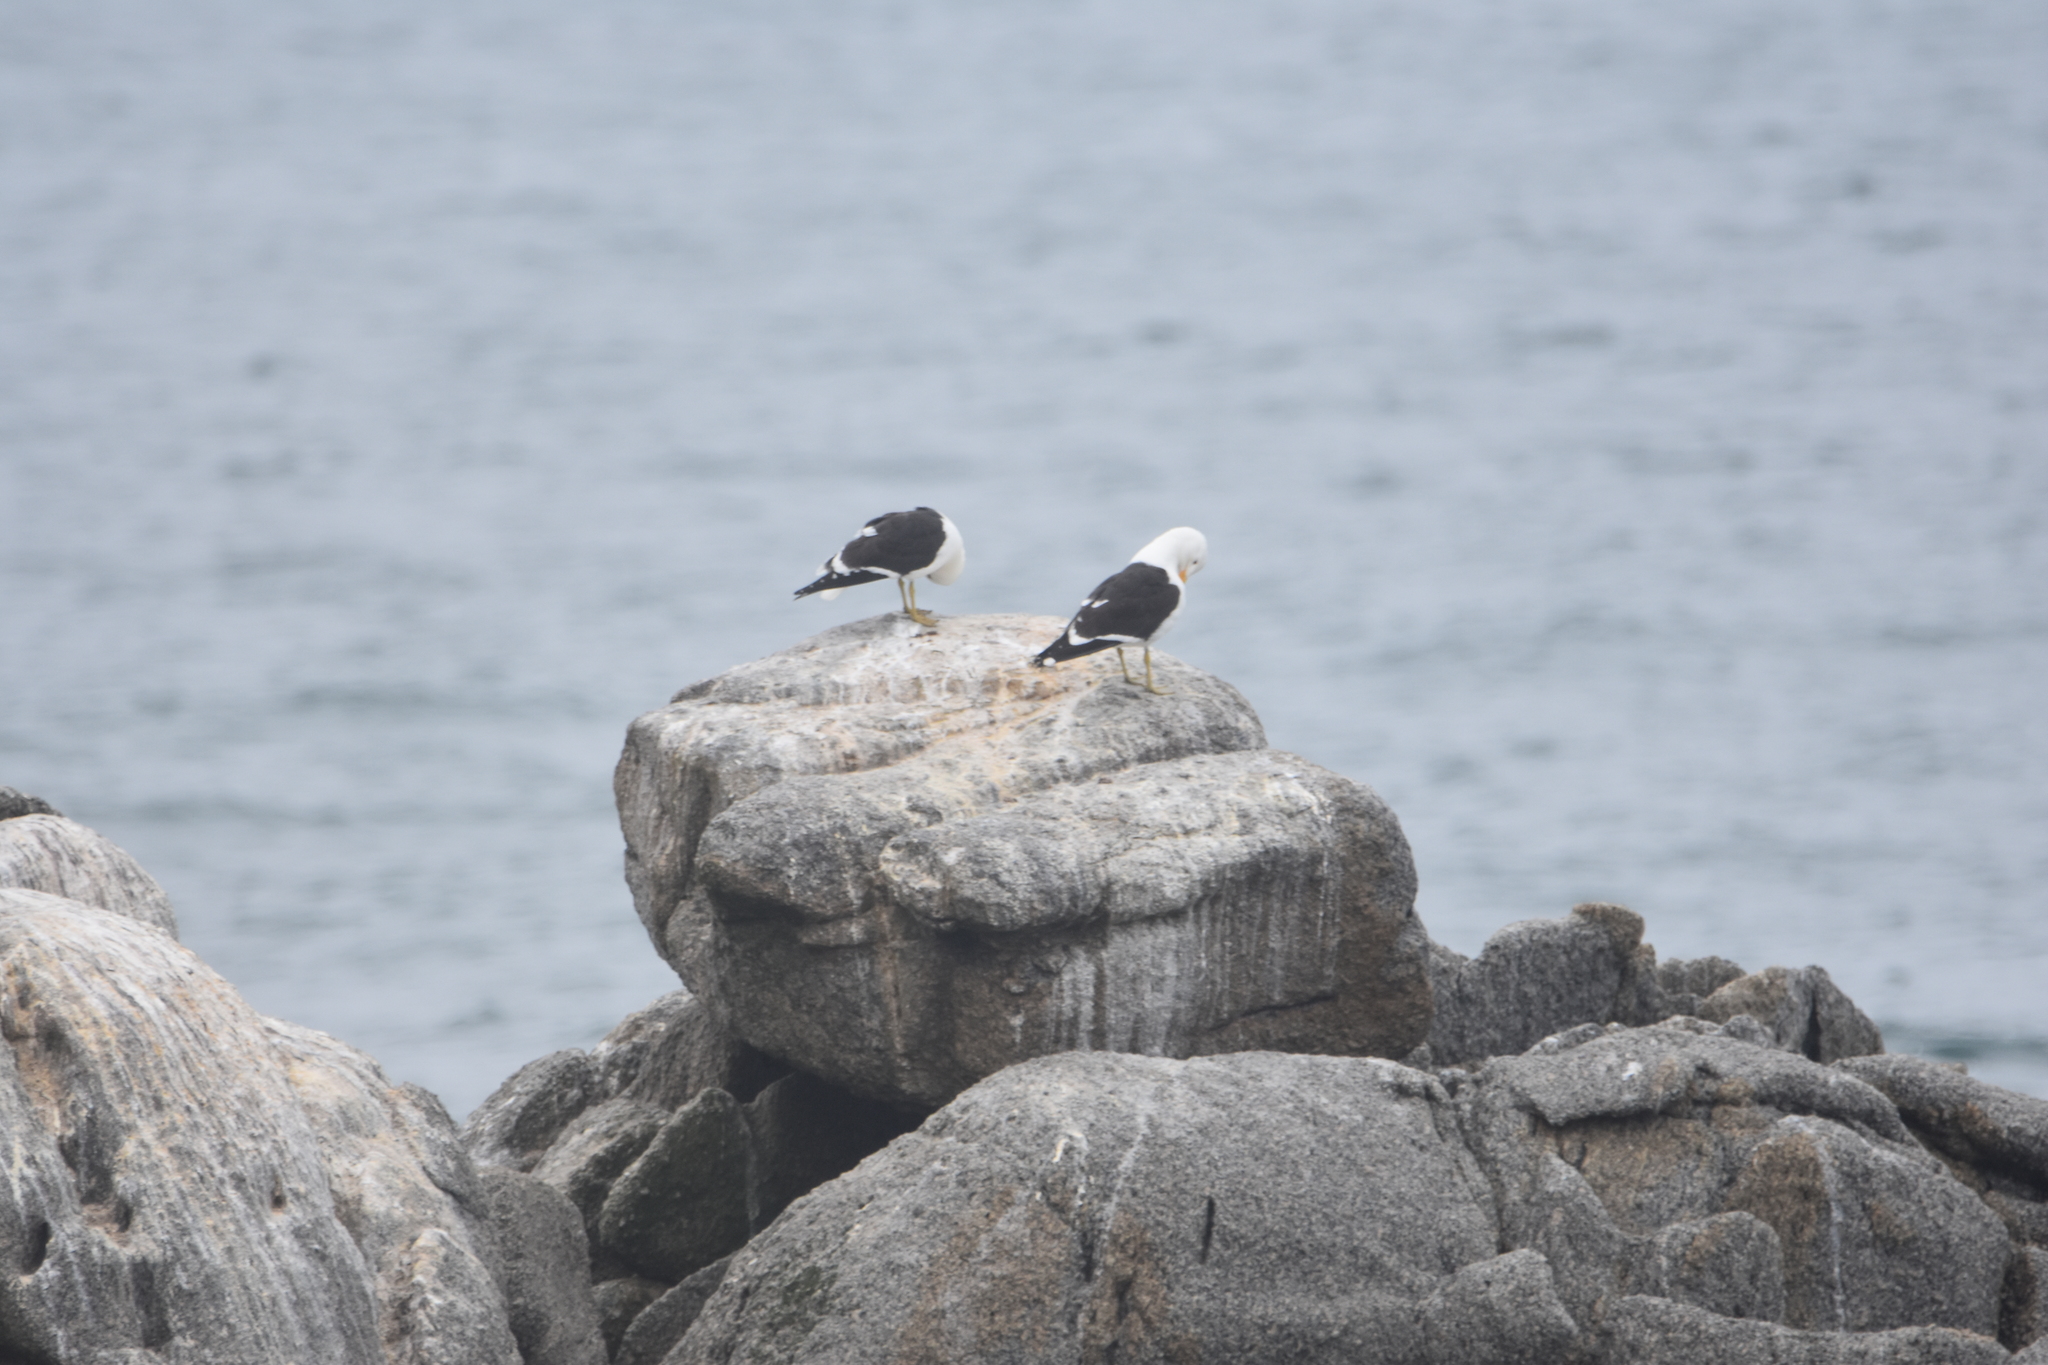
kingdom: Animalia
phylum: Chordata
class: Aves
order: Charadriiformes
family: Laridae
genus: Larus
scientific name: Larus dominicanus
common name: Kelp gull
